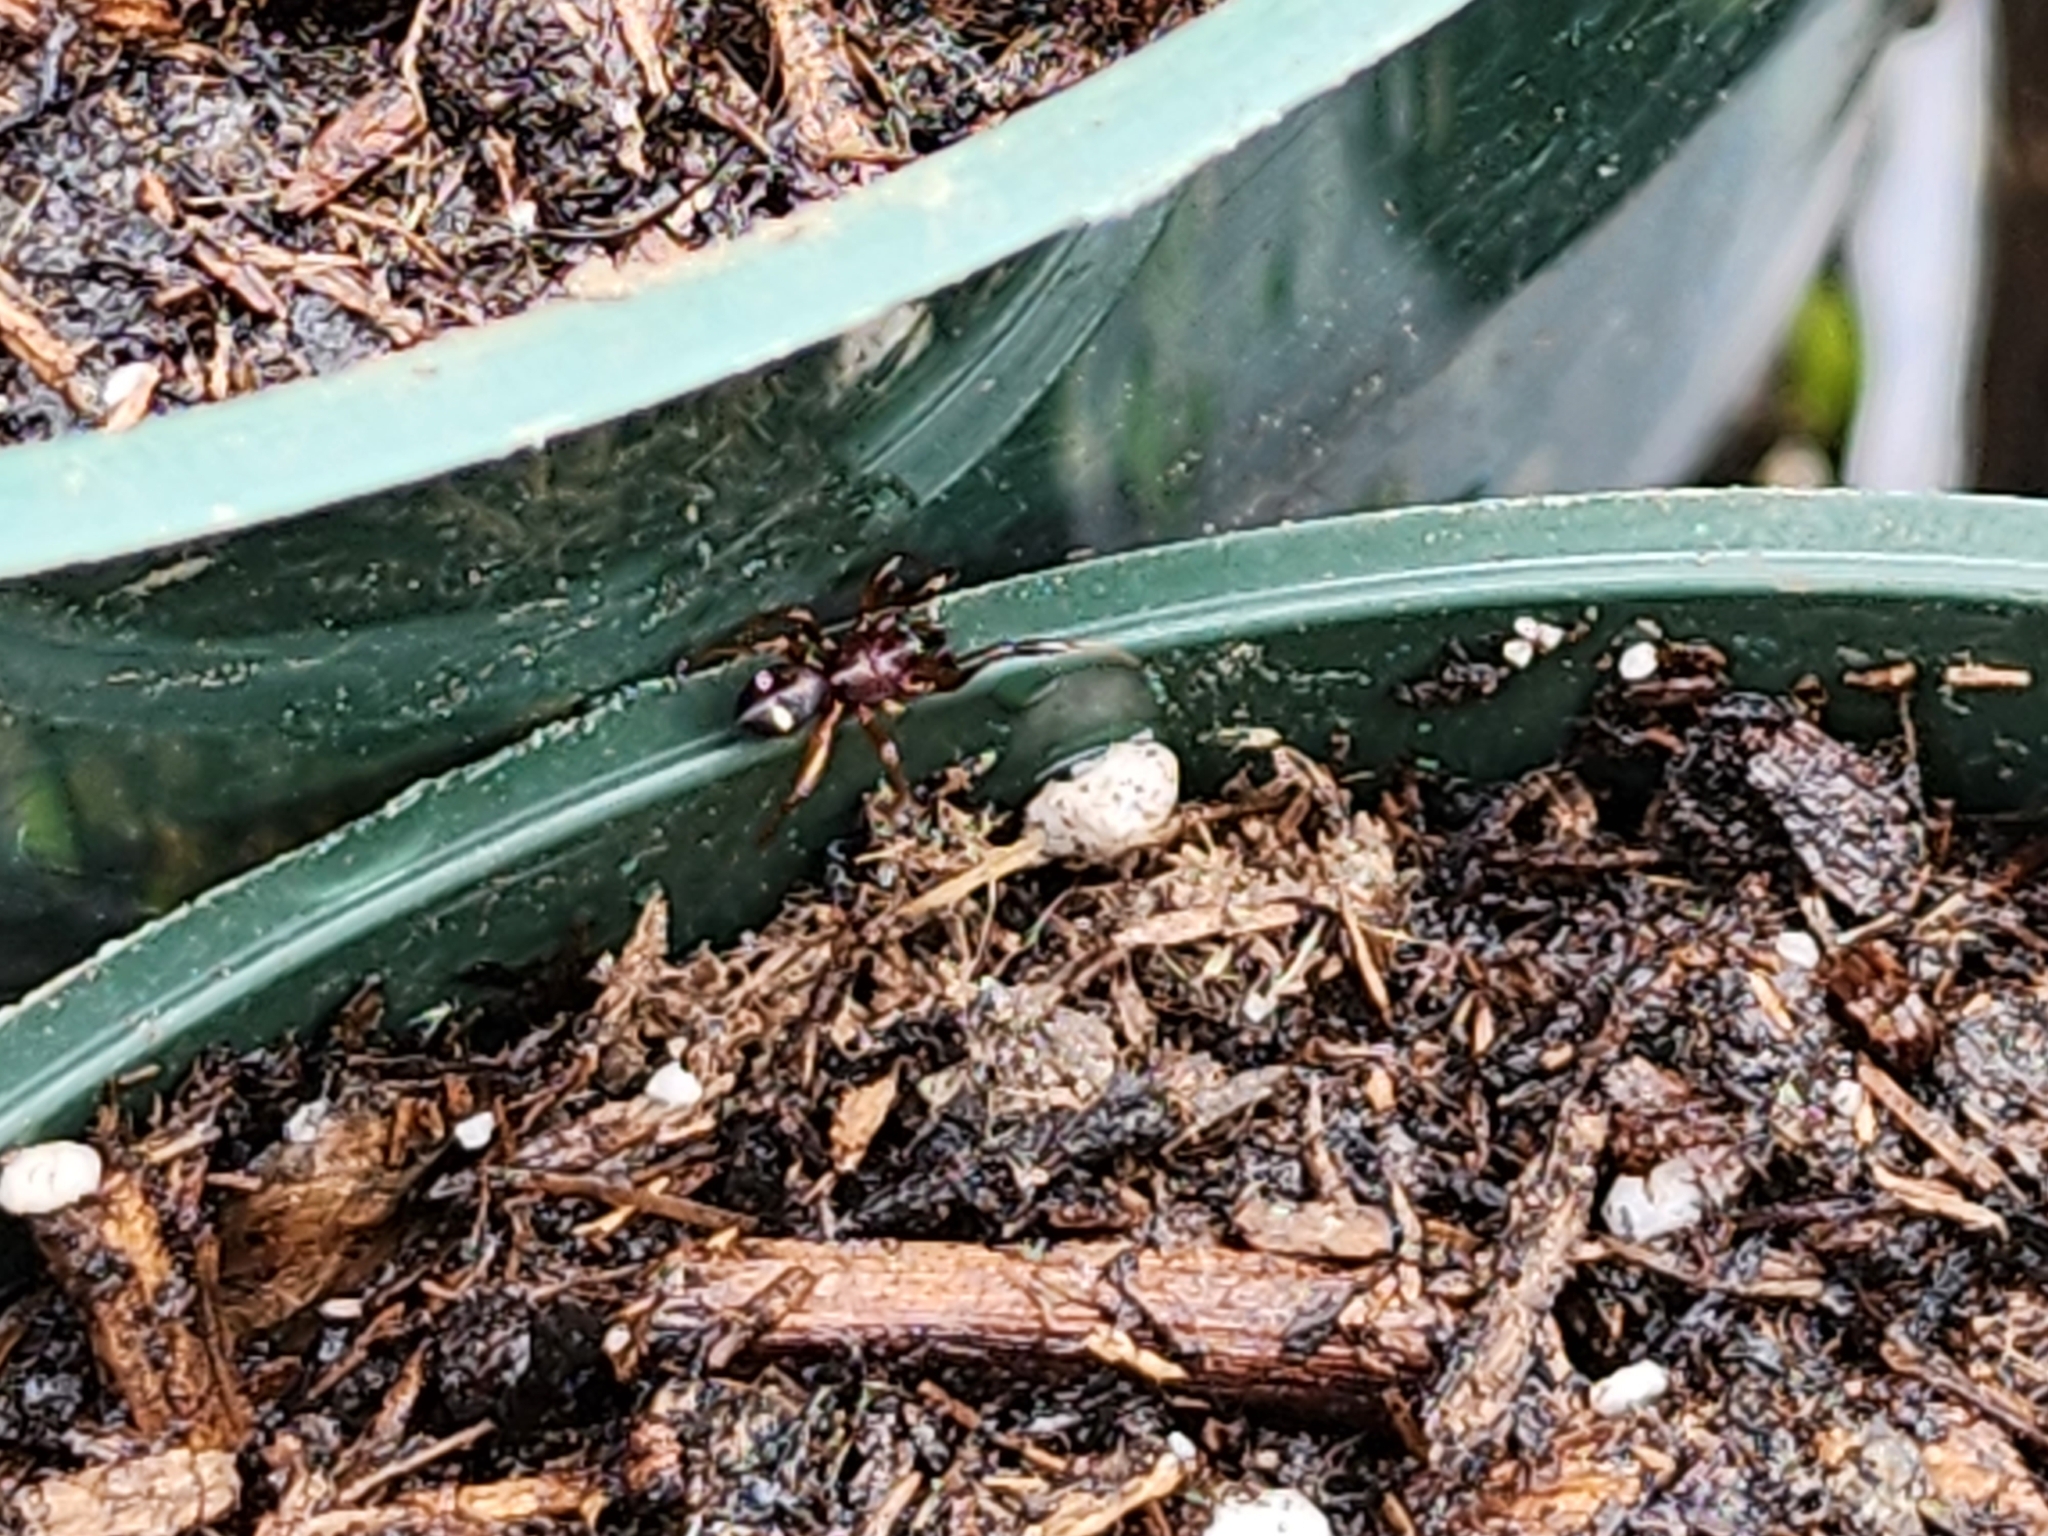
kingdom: Animalia
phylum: Arthropoda
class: Arachnida
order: Araneae
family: Theridiidae
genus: Asagena
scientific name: Asagena americana
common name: Two-spotted cobweb spider
